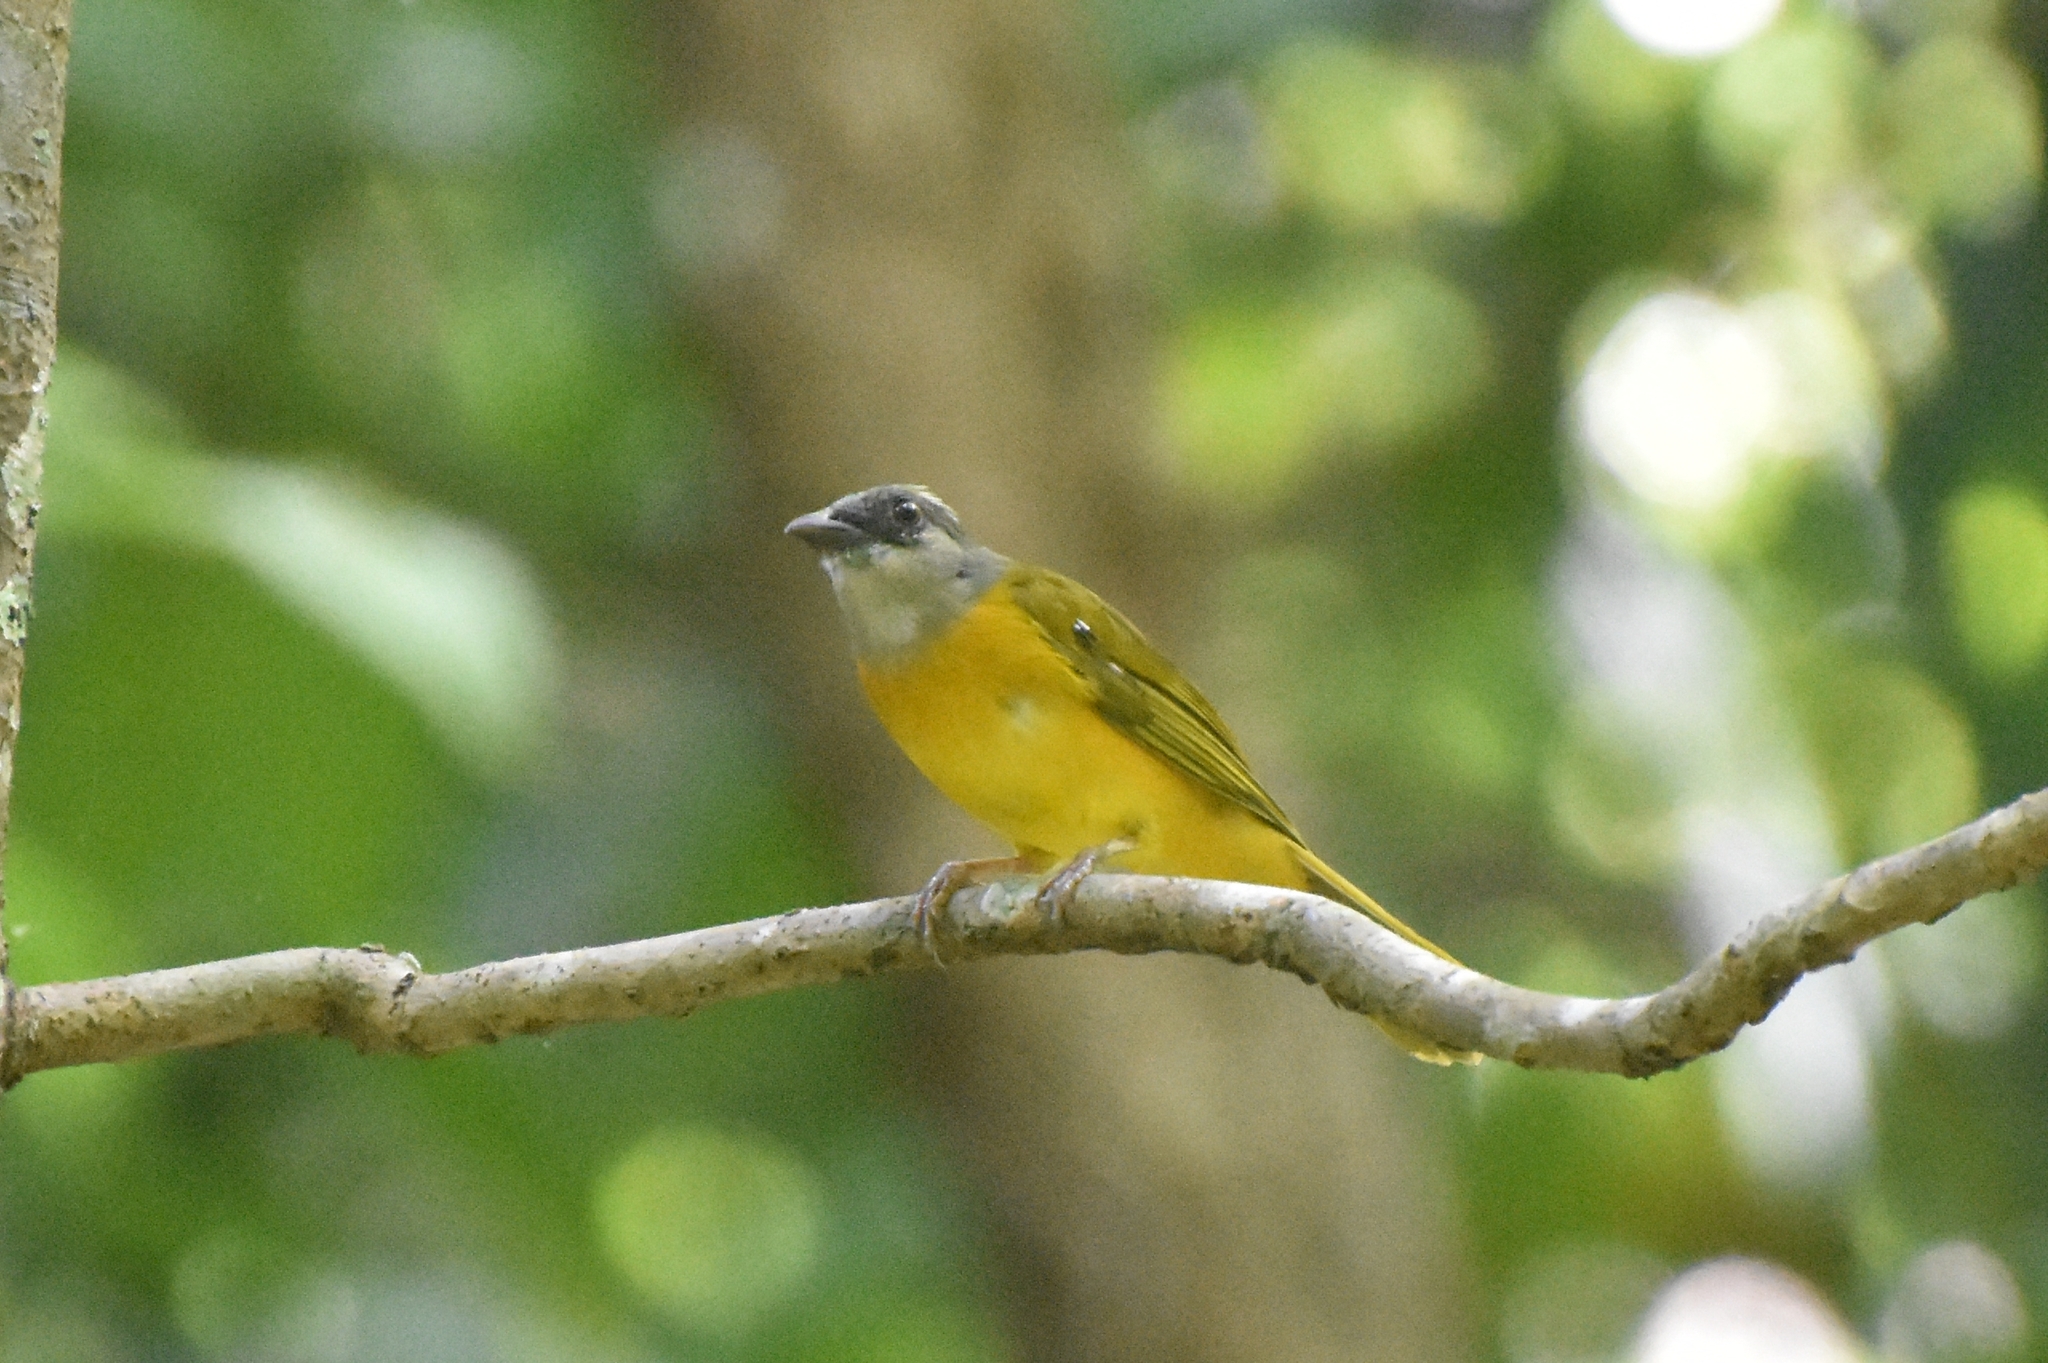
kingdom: Animalia
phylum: Chordata
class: Aves
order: Passeriformes
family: Thraupidae
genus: Eucometis
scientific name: Eucometis penicillata
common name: Grey-headed tanager
